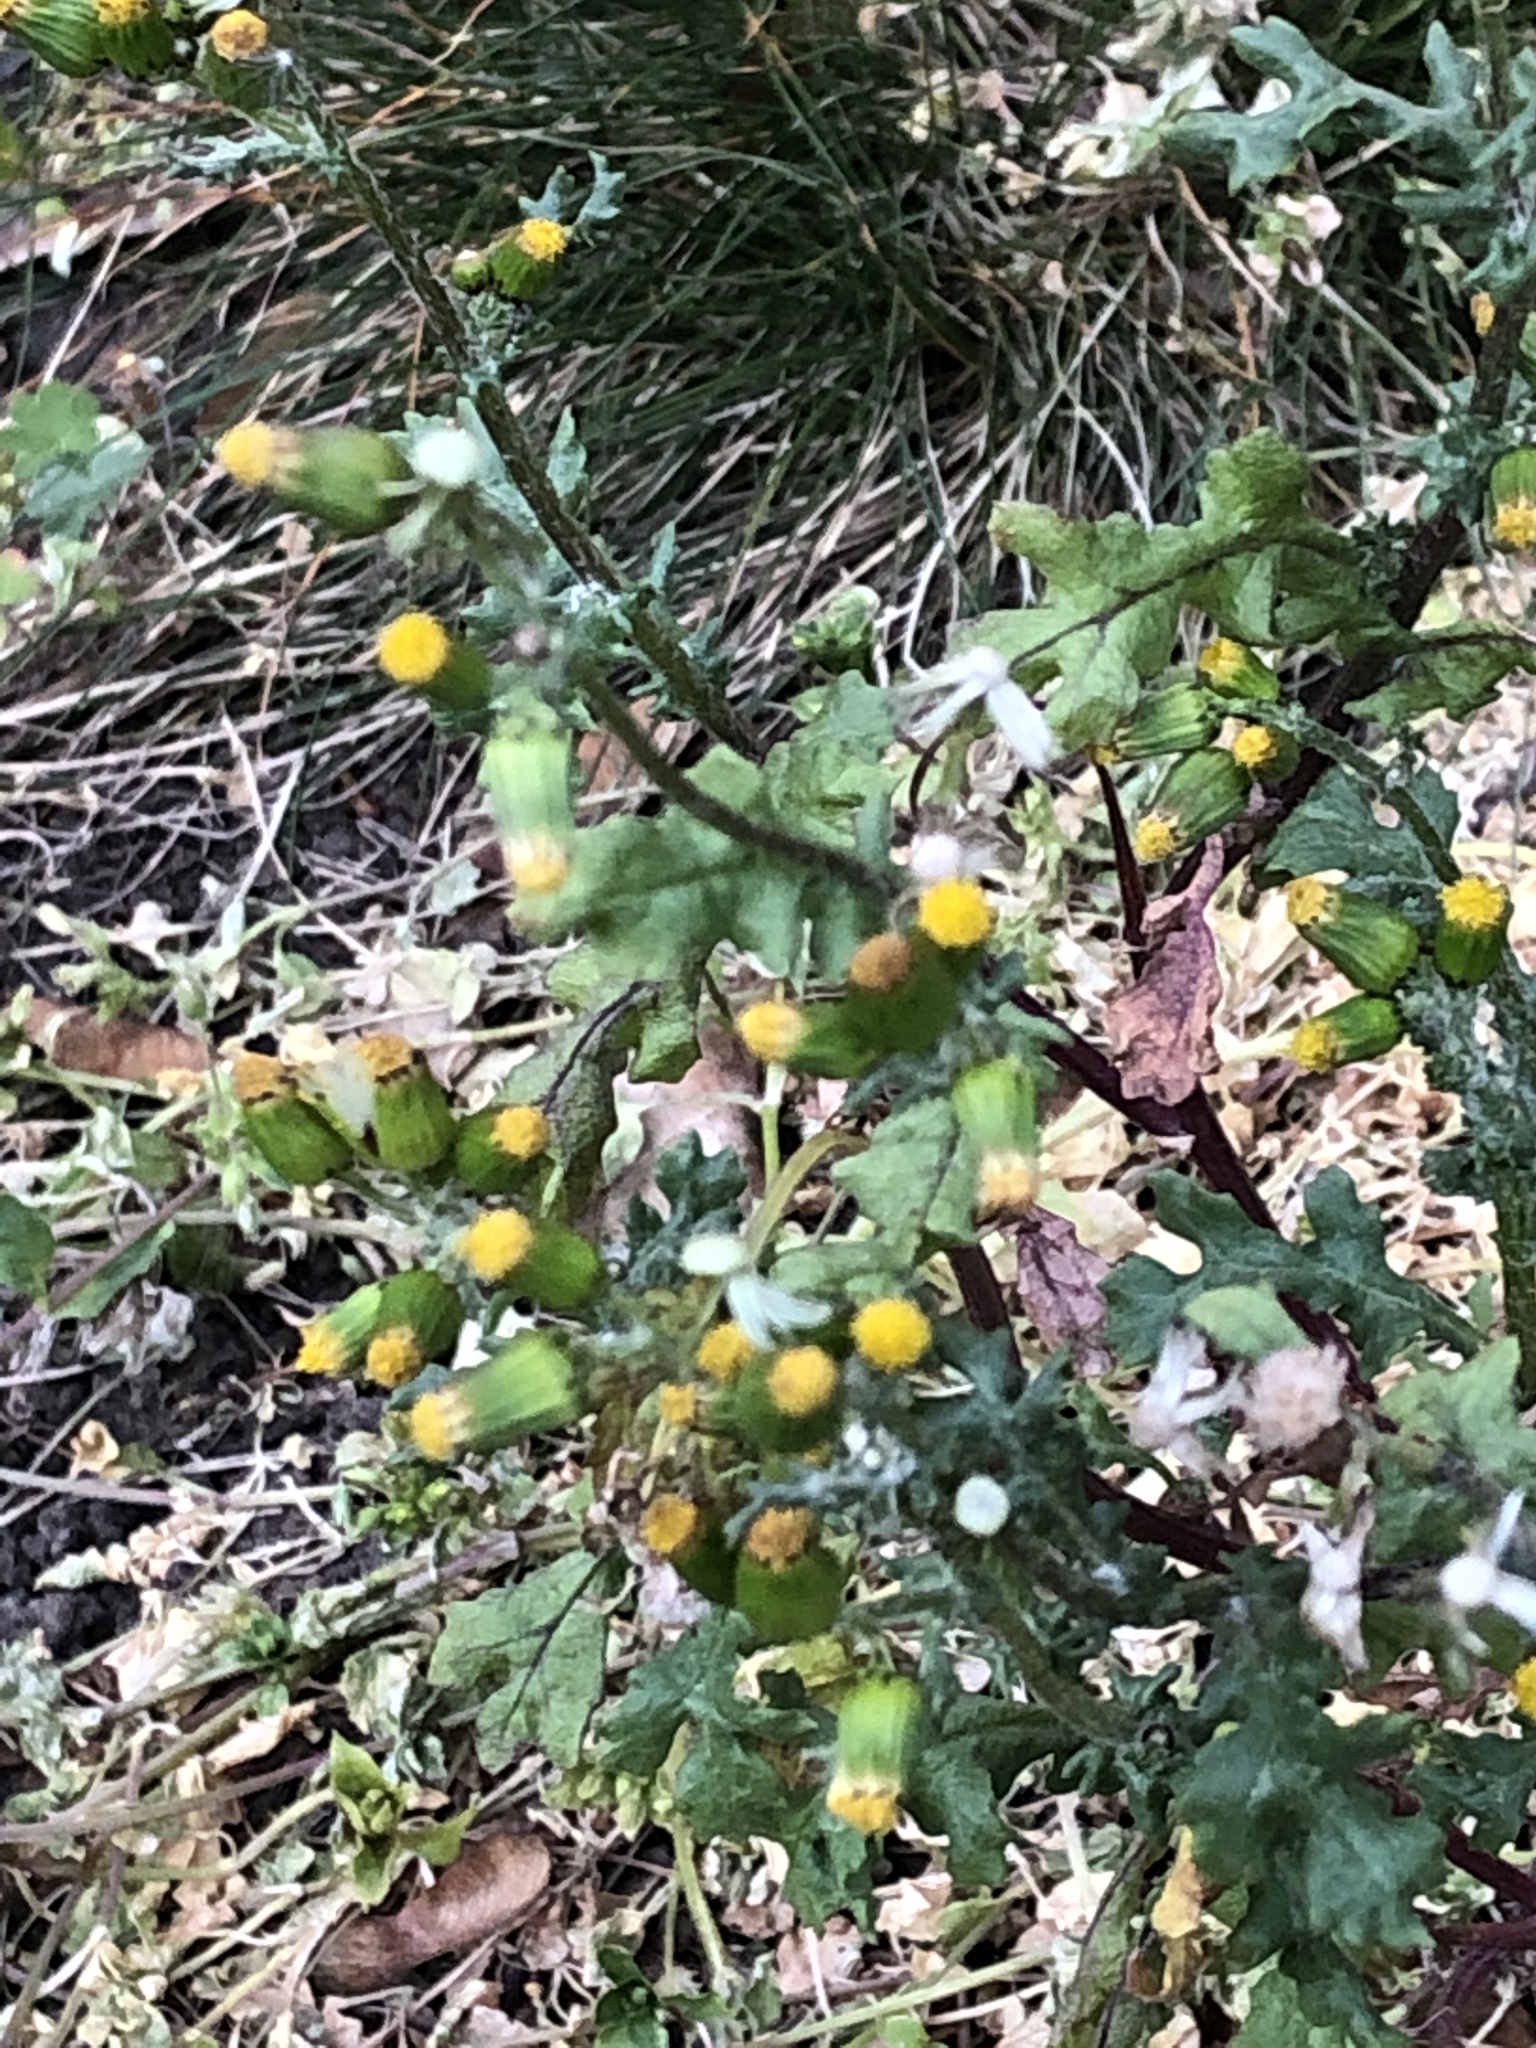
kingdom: Plantae
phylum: Tracheophyta
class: Magnoliopsida
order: Asterales
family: Asteraceae
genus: Senecio
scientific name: Senecio vulgaris
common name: Old-man-in-the-spring
